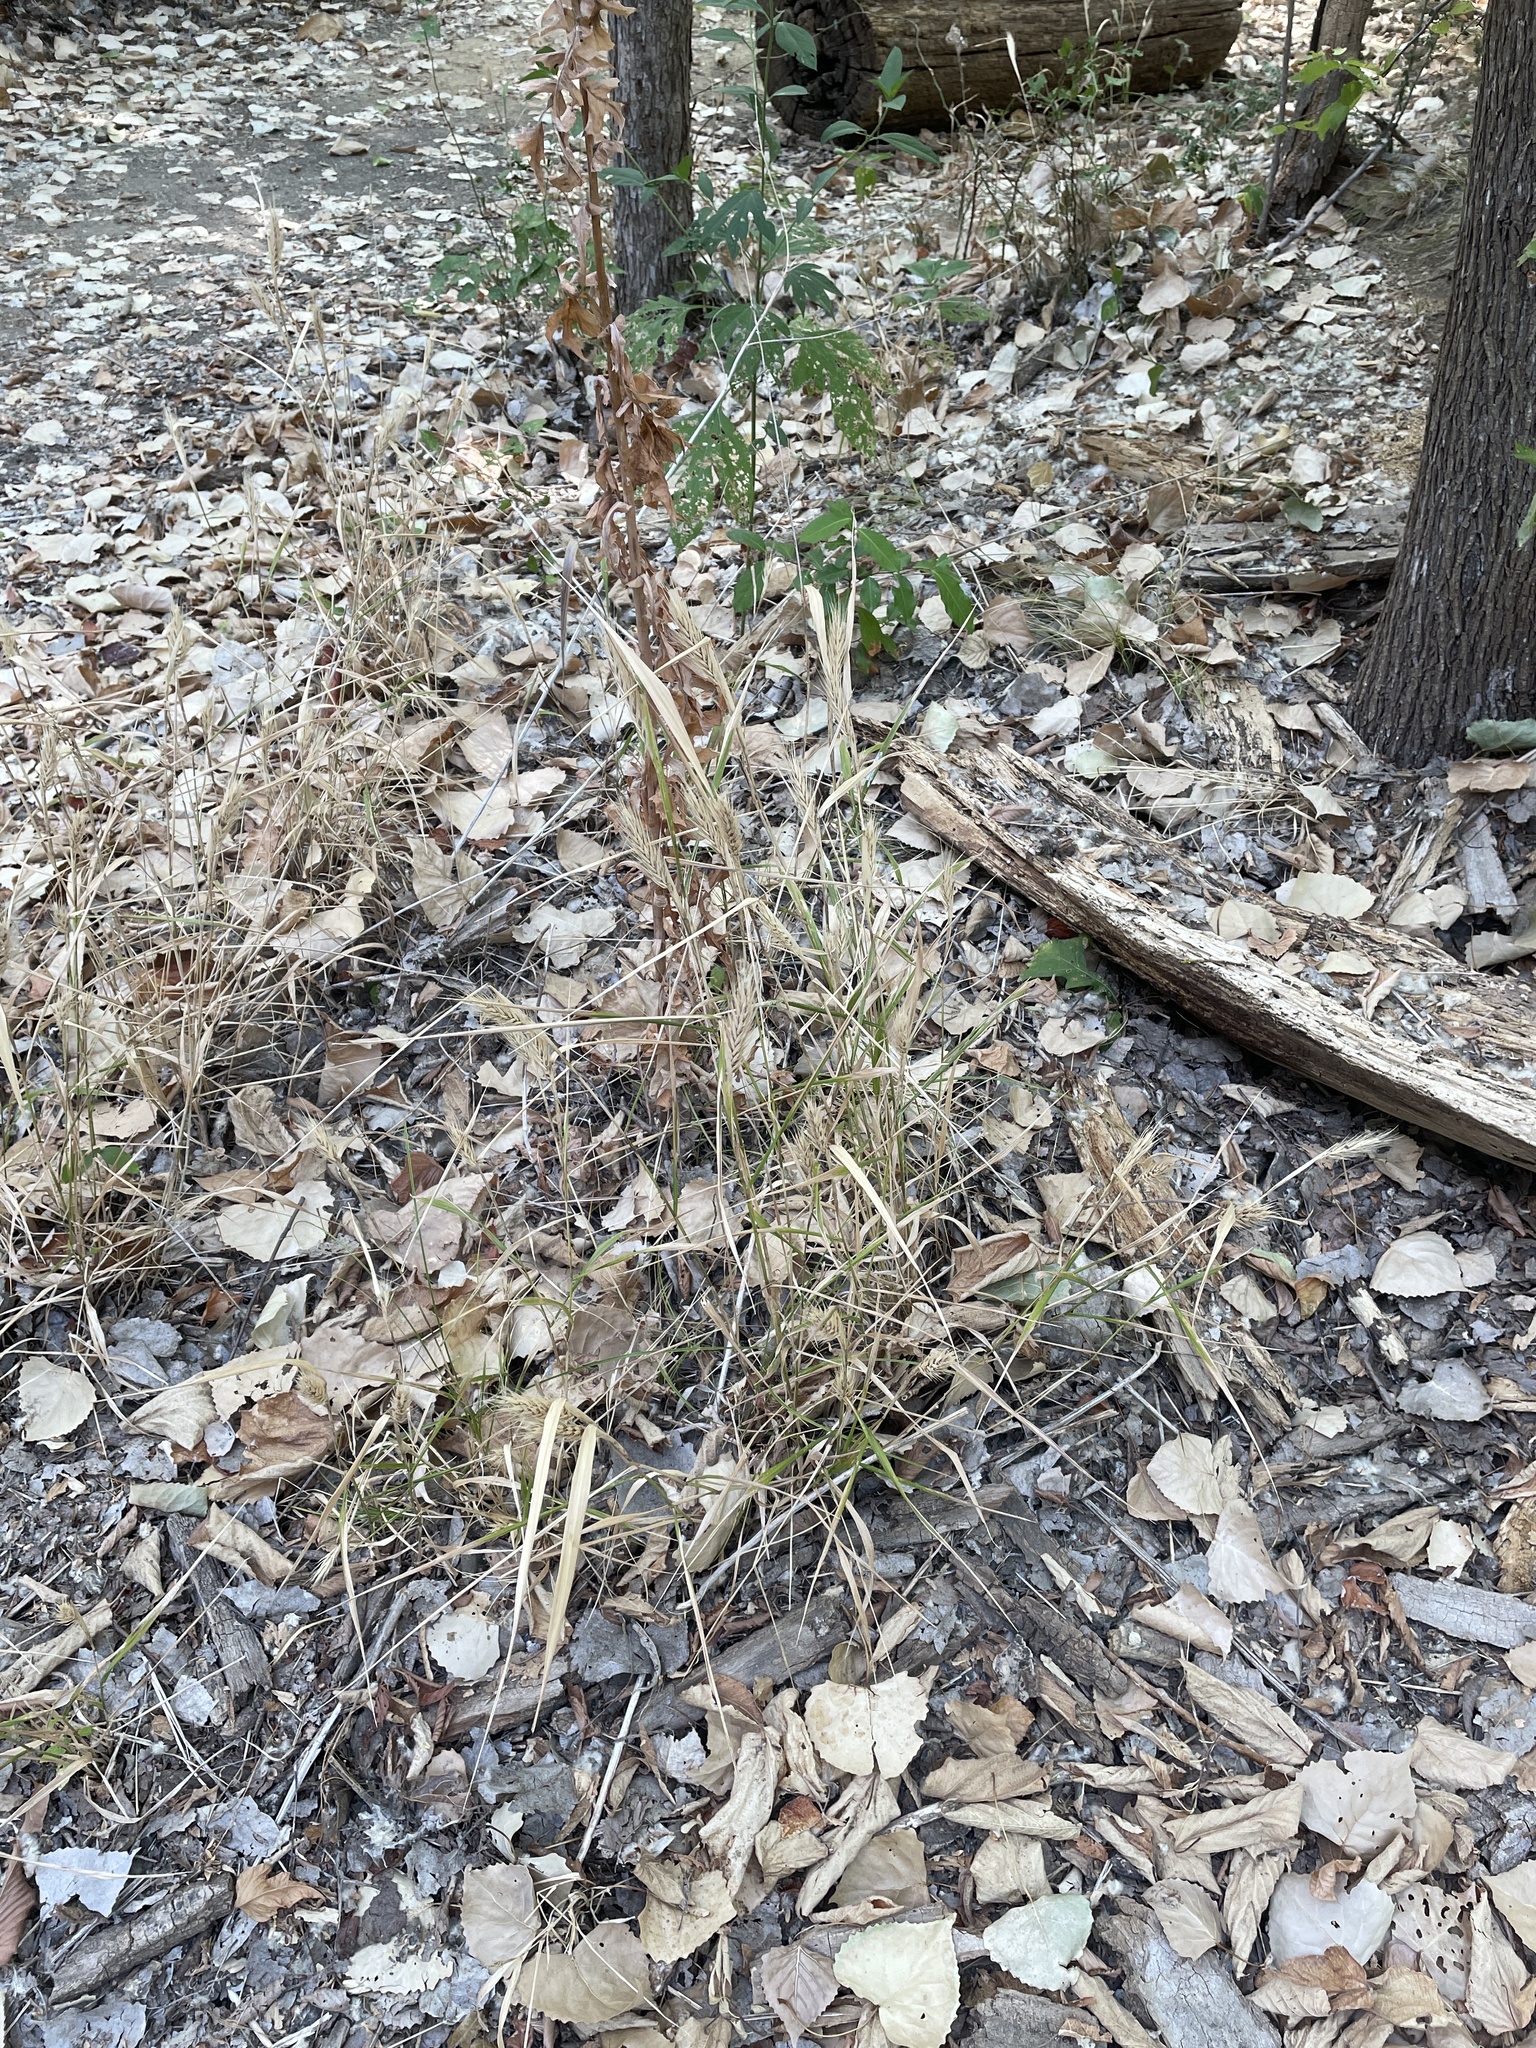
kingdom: Plantae
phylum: Tracheophyta
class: Liliopsida
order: Poales
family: Poaceae
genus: Elymus
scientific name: Elymus virginicus
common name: Common eastern wildrye
